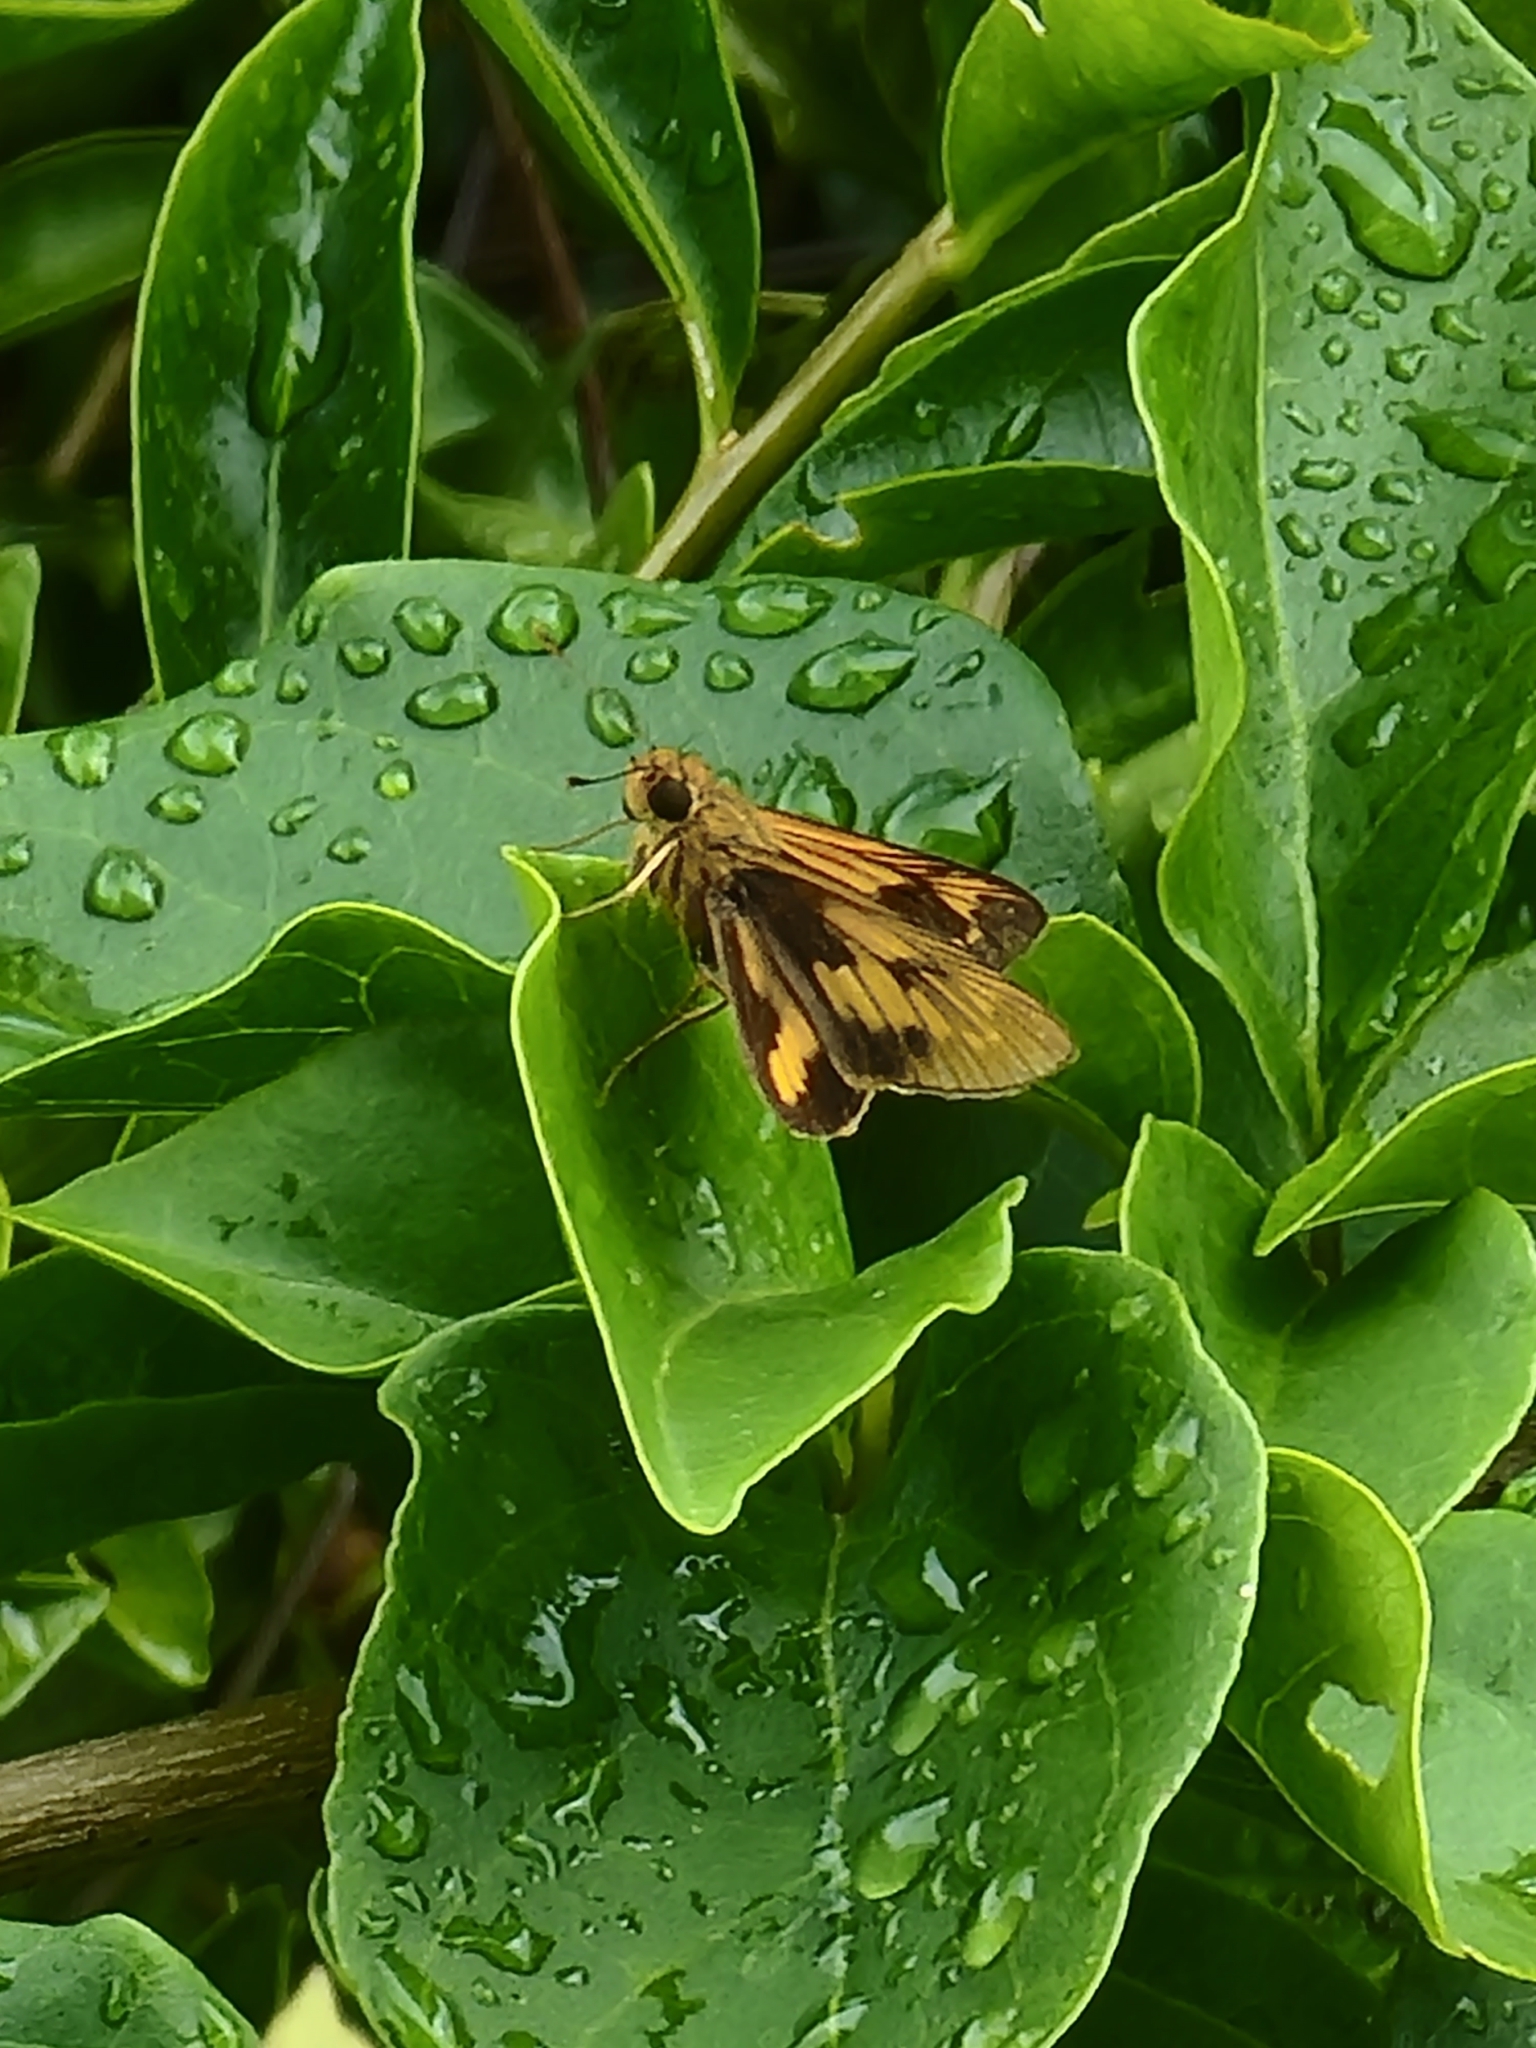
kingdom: Animalia
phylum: Arthropoda
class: Insecta
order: Lepidoptera
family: Hesperiidae
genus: Cephrenes
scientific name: Cephrenes augiades
